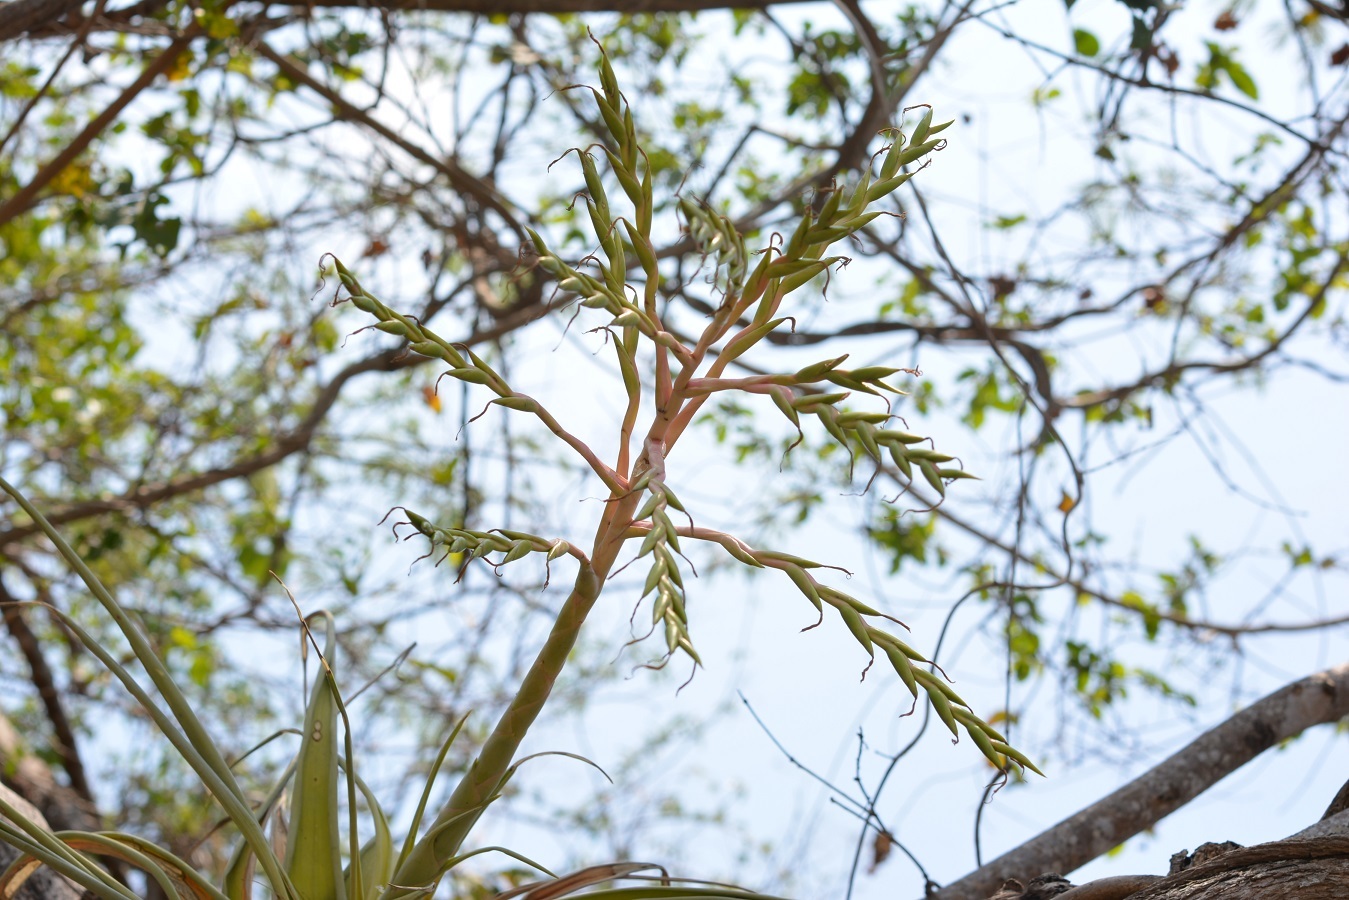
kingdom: Plantae
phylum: Tracheophyta
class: Liliopsida
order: Poales
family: Bromeliaceae
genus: Tillandsia
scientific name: Tillandsia elusiva
